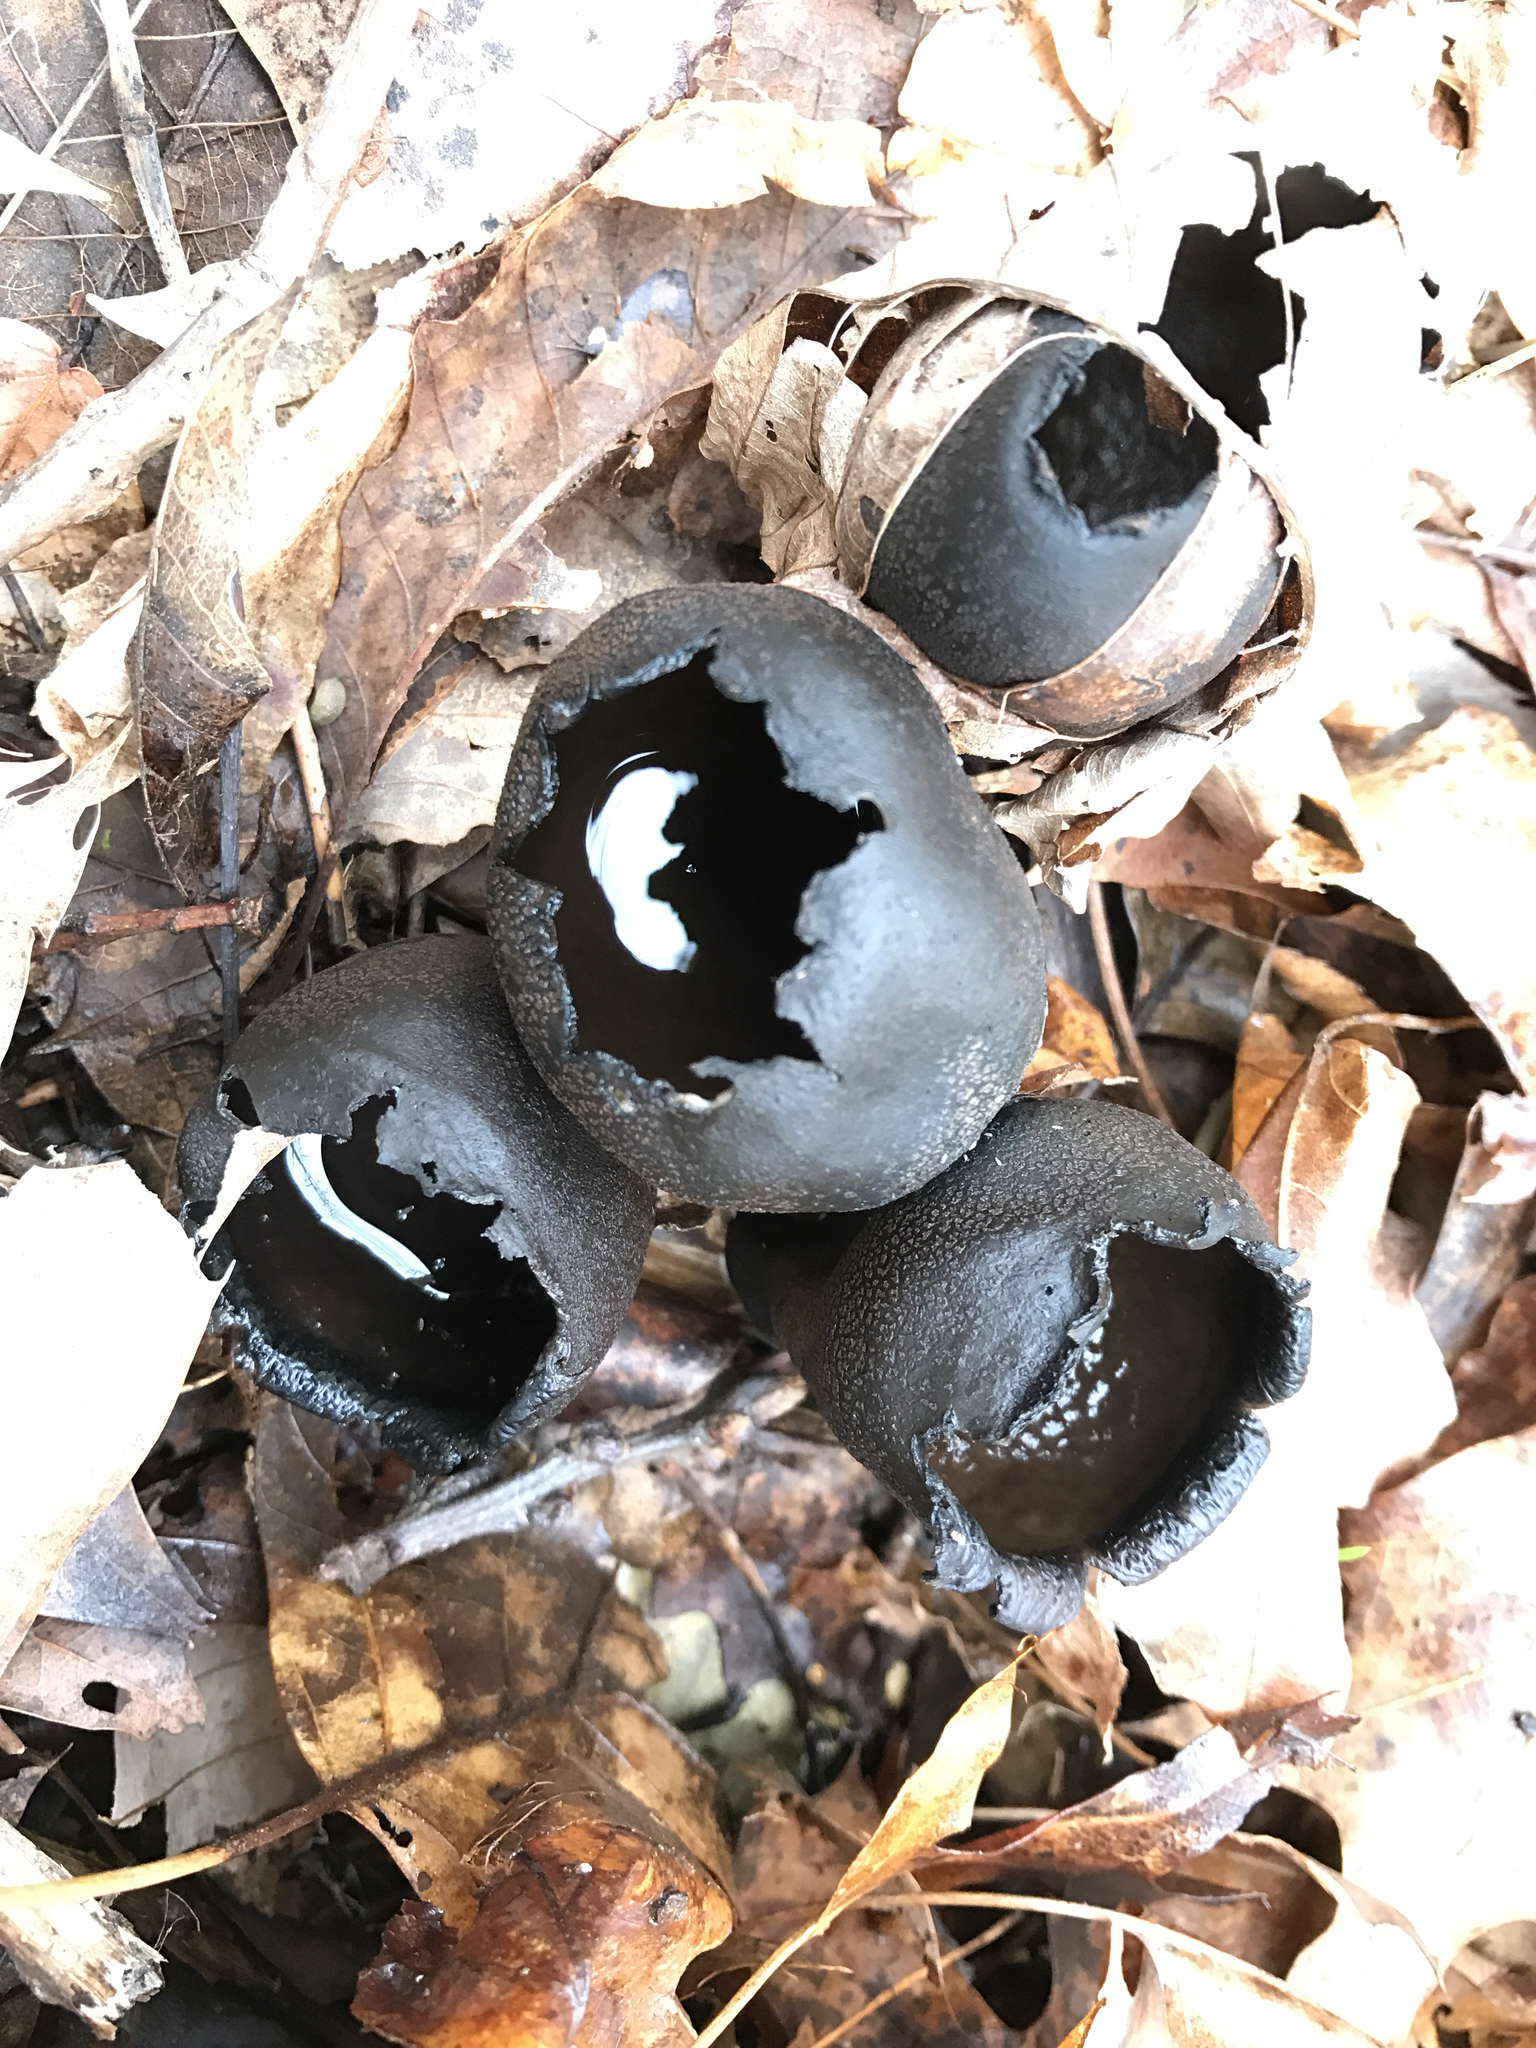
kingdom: Fungi
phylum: Ascomycota
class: Pezizomycetes
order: Pezizales
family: Sarcosomataceae
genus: Urnula
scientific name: Urnula craterium
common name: Devil's urn
